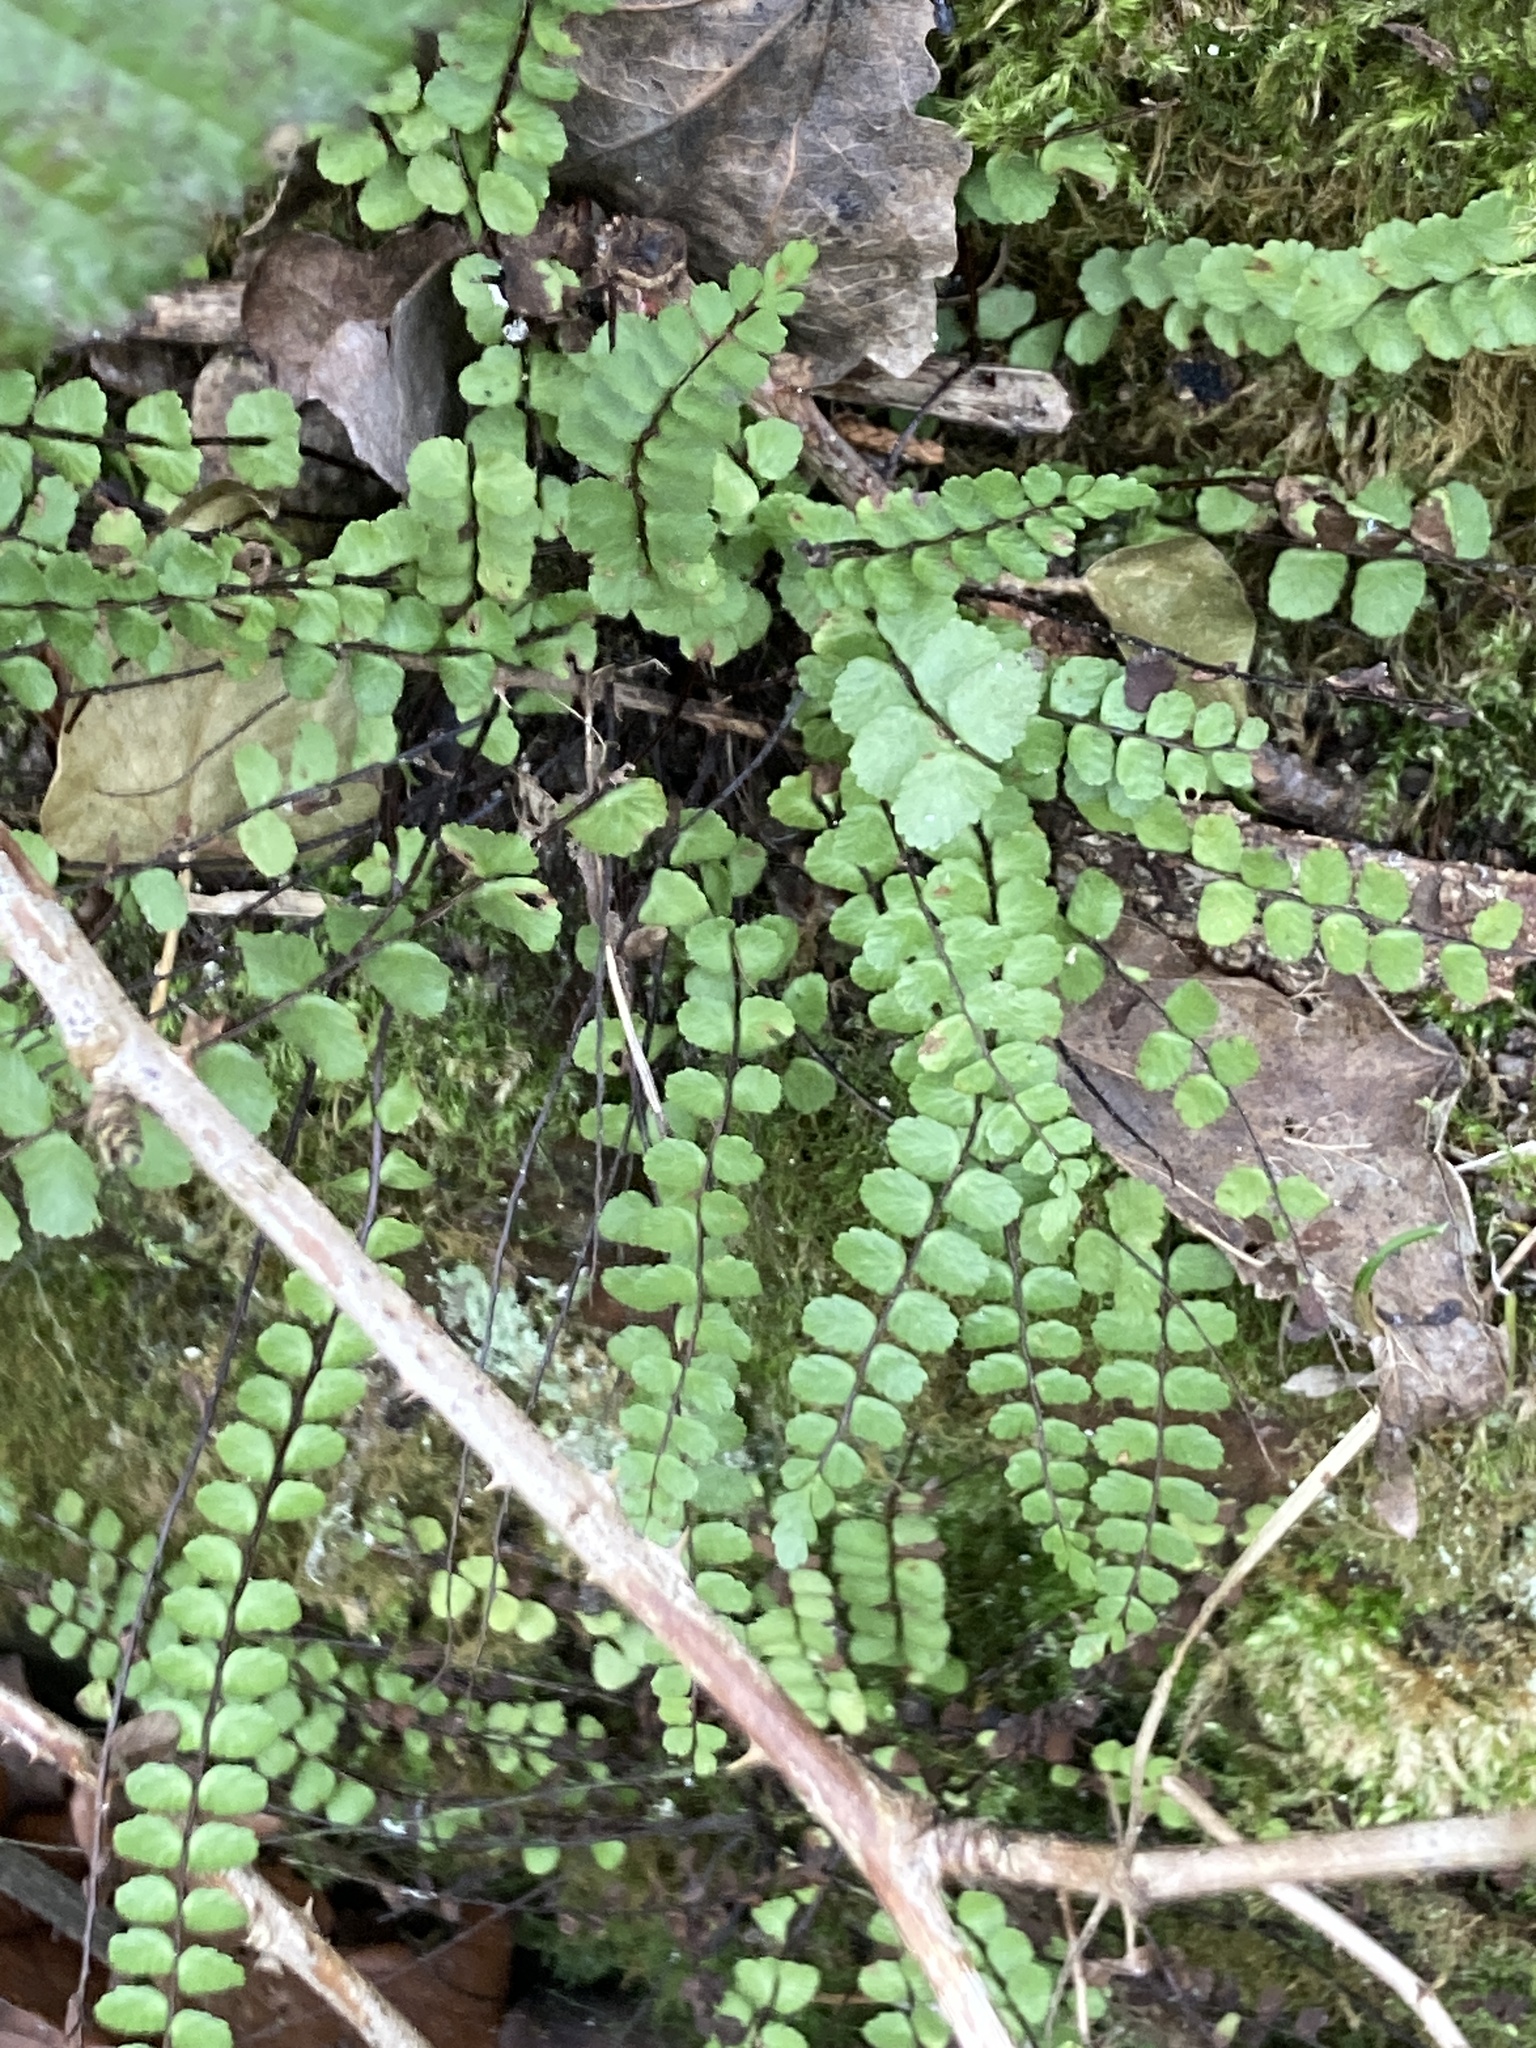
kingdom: Plantae
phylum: Tracheophyta
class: Polypodiopsida
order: Polypodiales
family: Aspleniaceae
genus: Asplenium
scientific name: Asplenium trichomanes
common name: Maidenhair spleenwort
